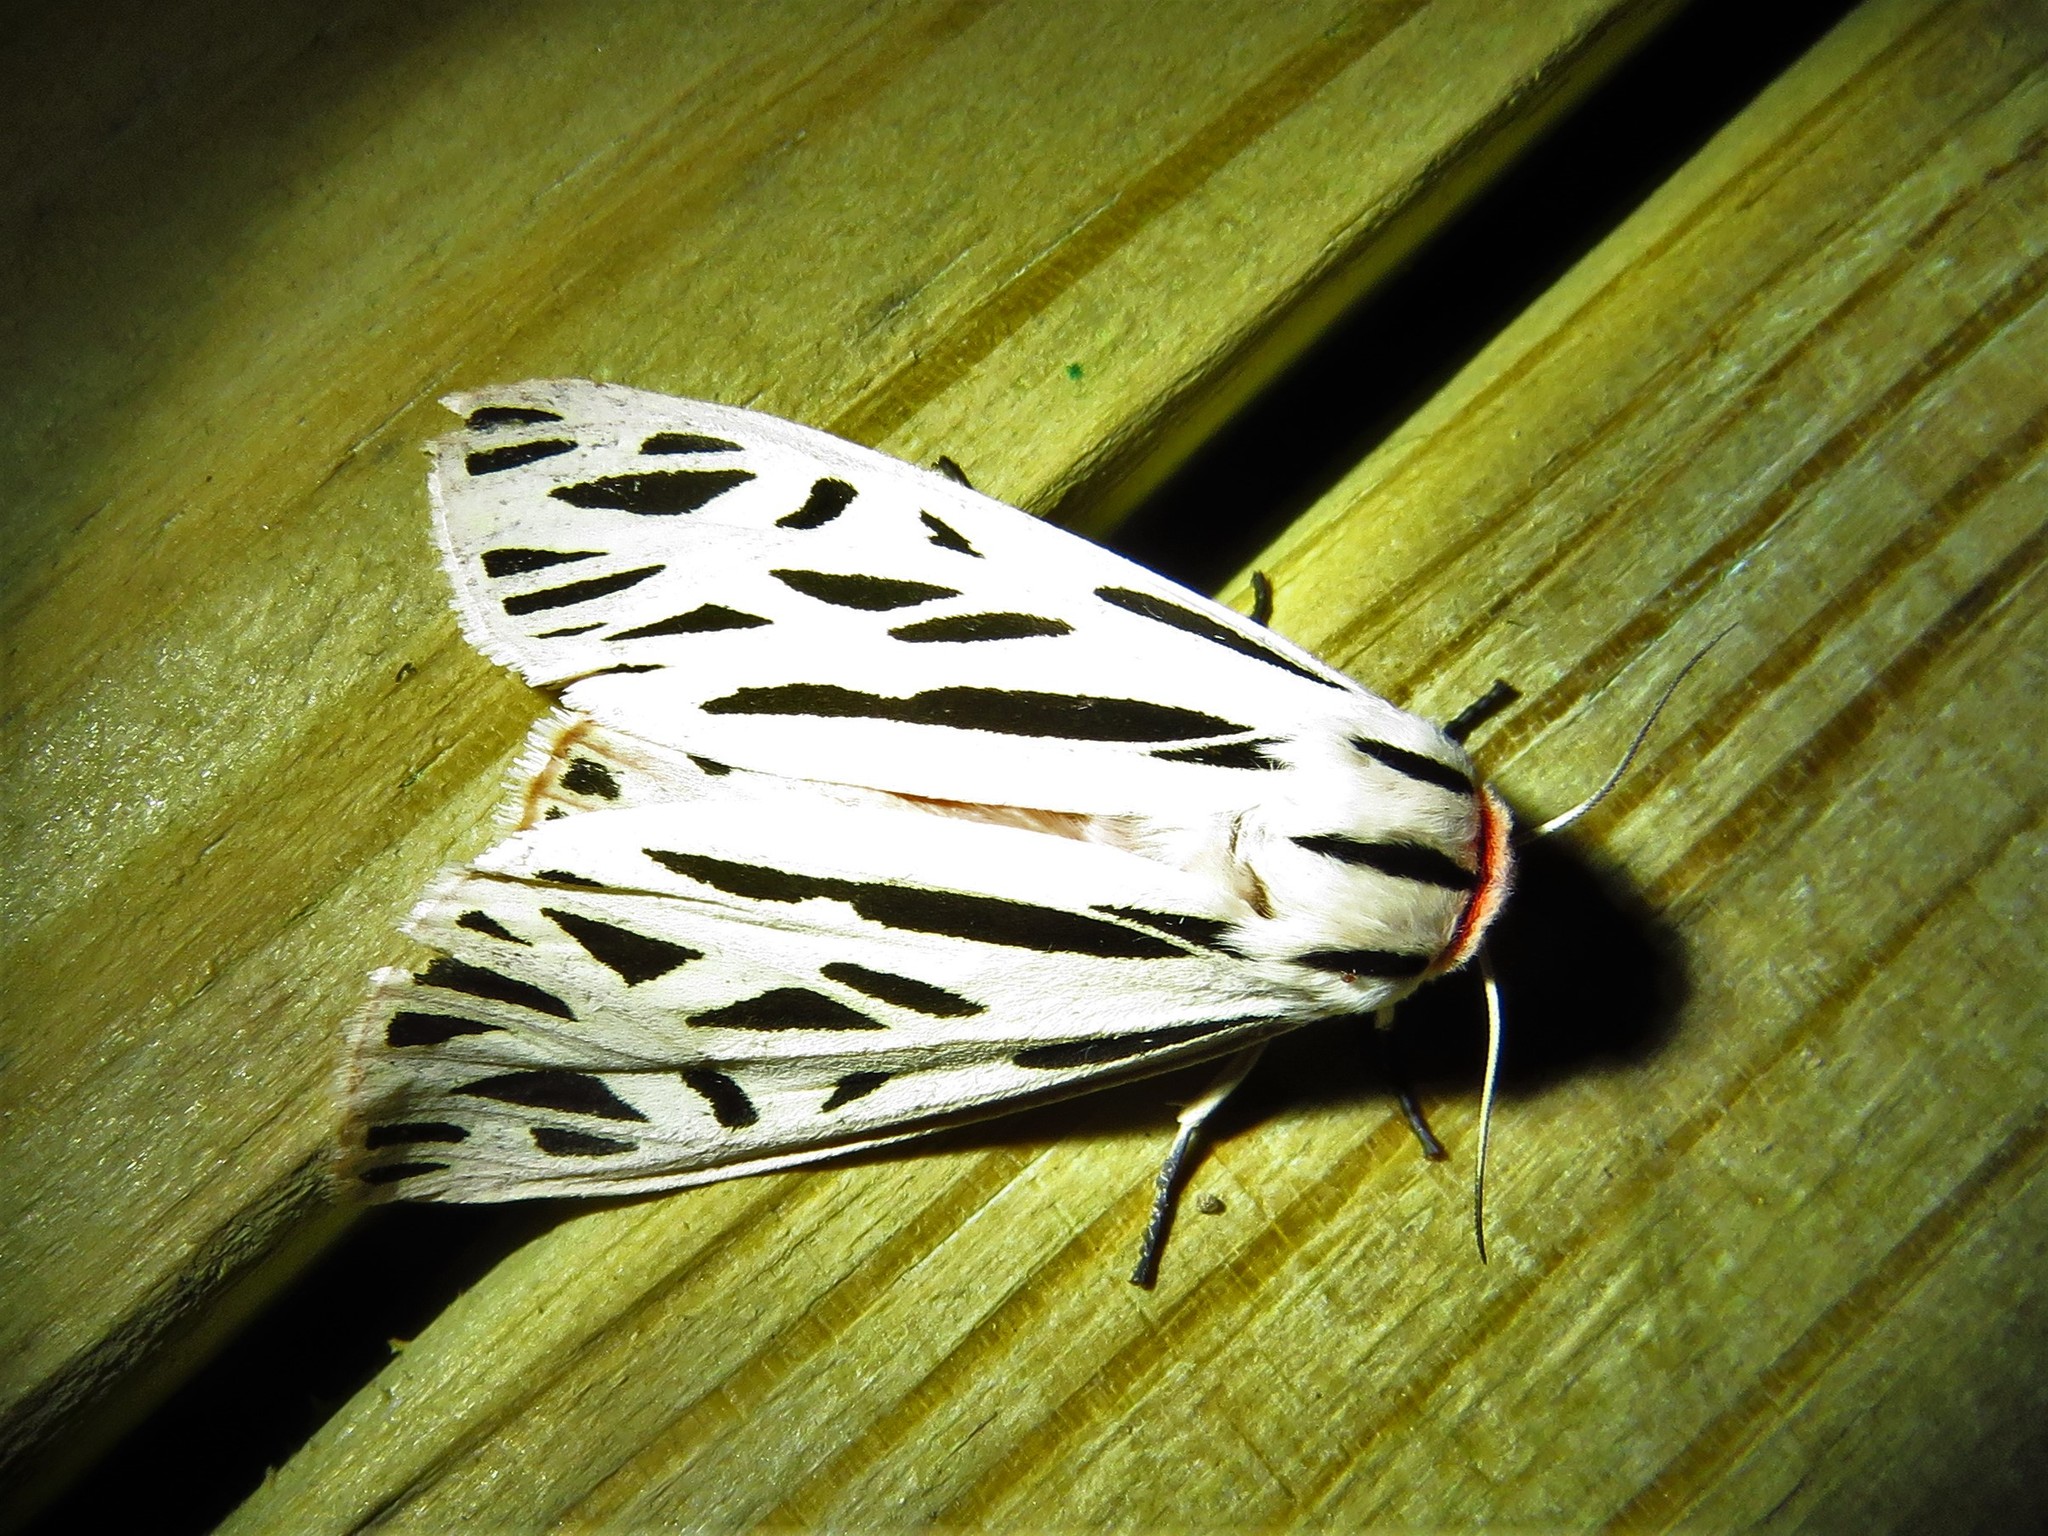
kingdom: Animalia
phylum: Arthropoda
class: Insecta
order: Lepidoptera
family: Erebidae
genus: Apantesis
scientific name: Apantesis arge
